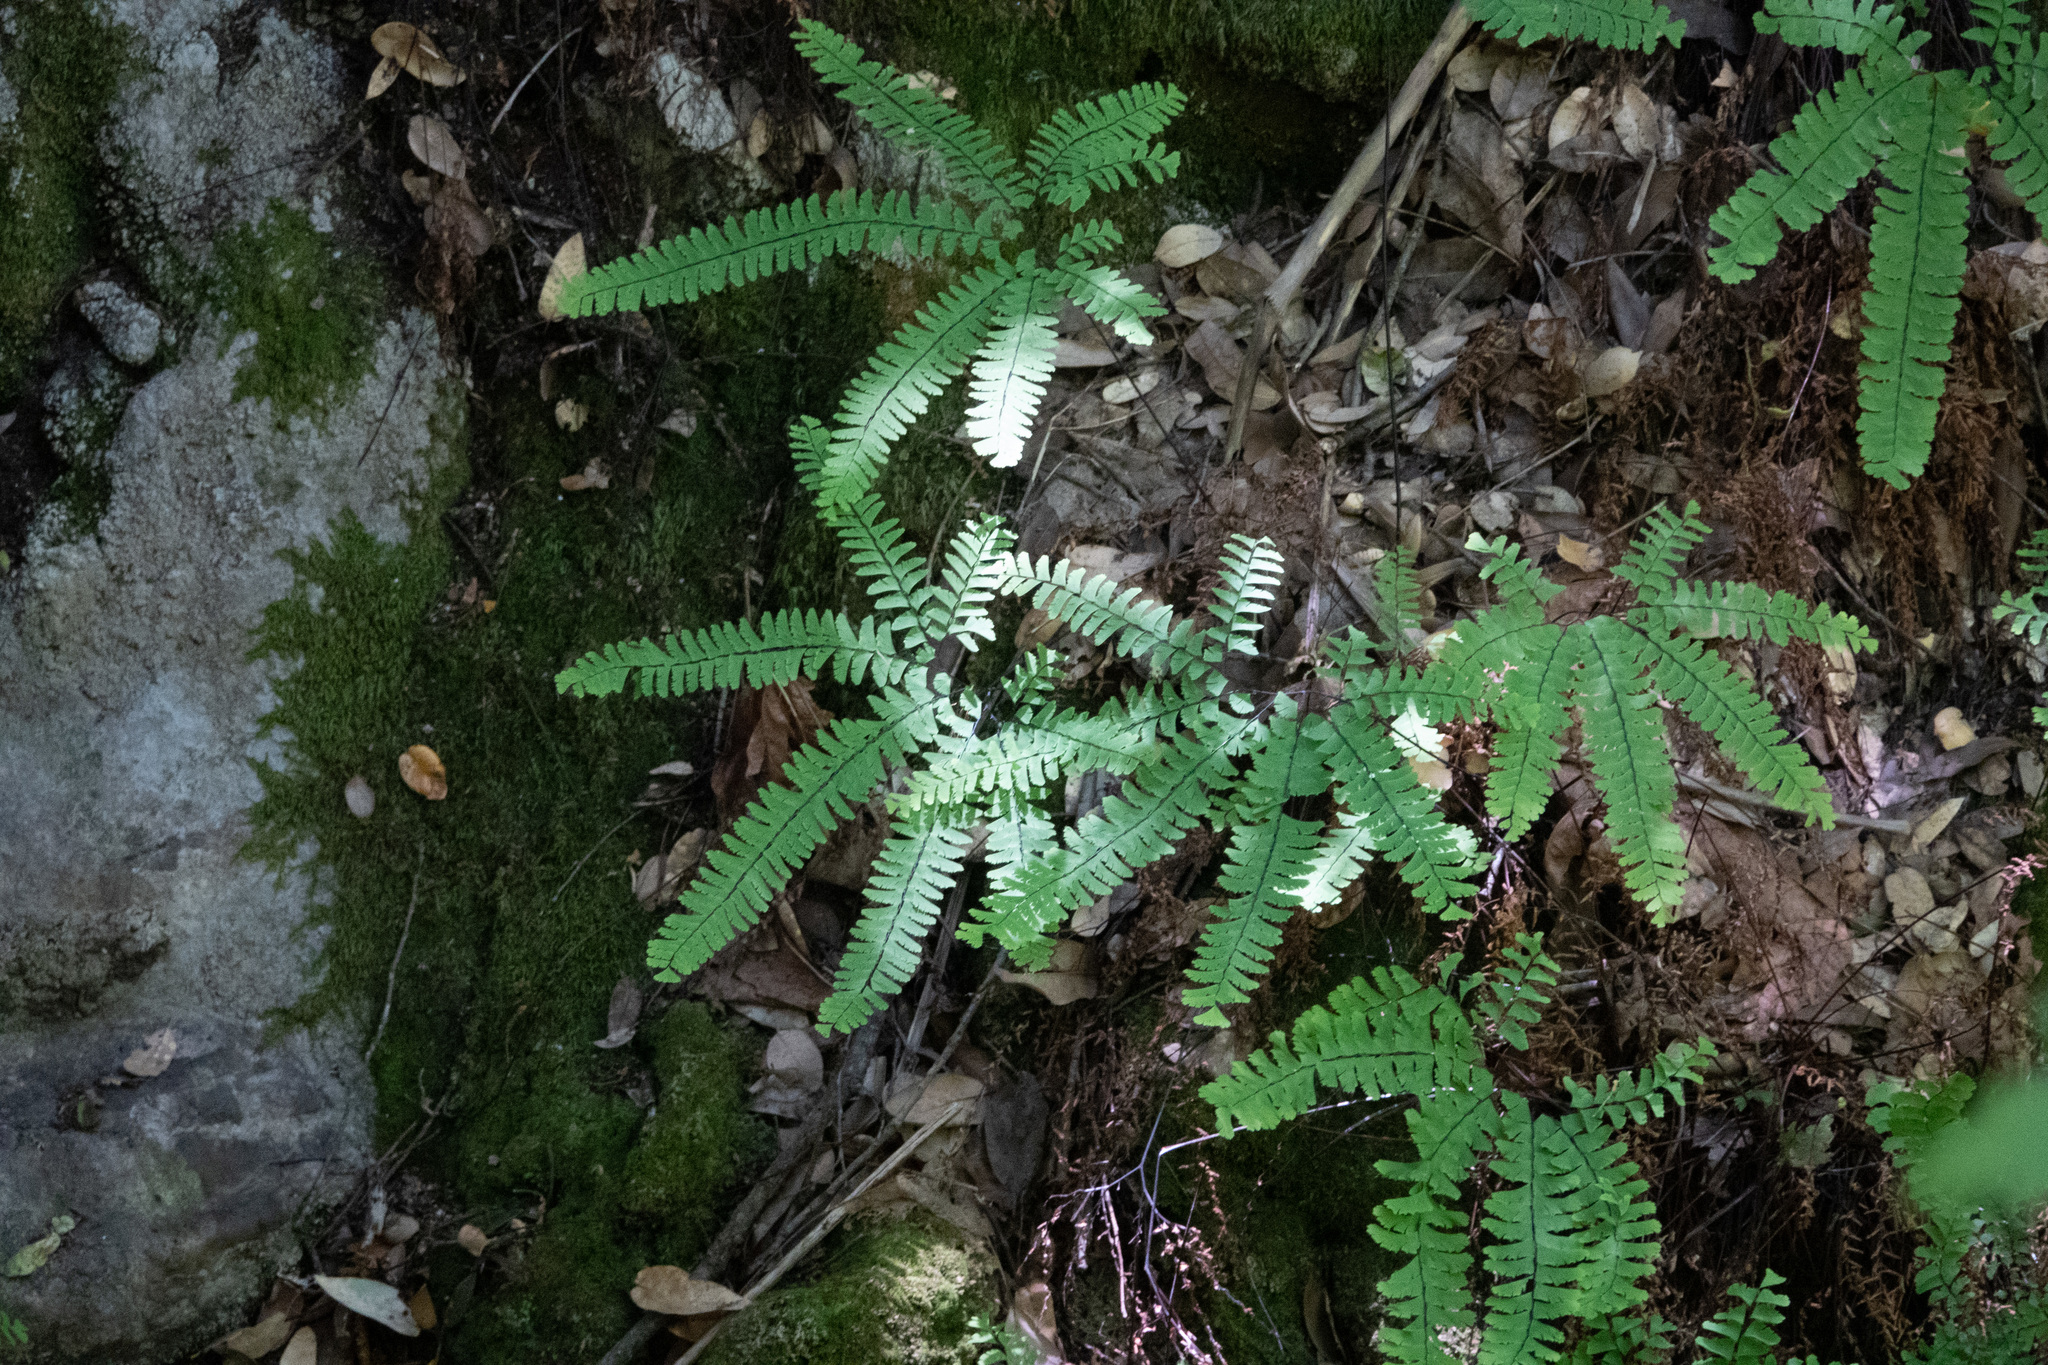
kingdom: Plantae
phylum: Tracheophyta
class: Polypodiopsida
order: Polypodiales
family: Pteridaceae
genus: Adiantum
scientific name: Adiantum aleuticum
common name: Aleutian maidenhair fern
